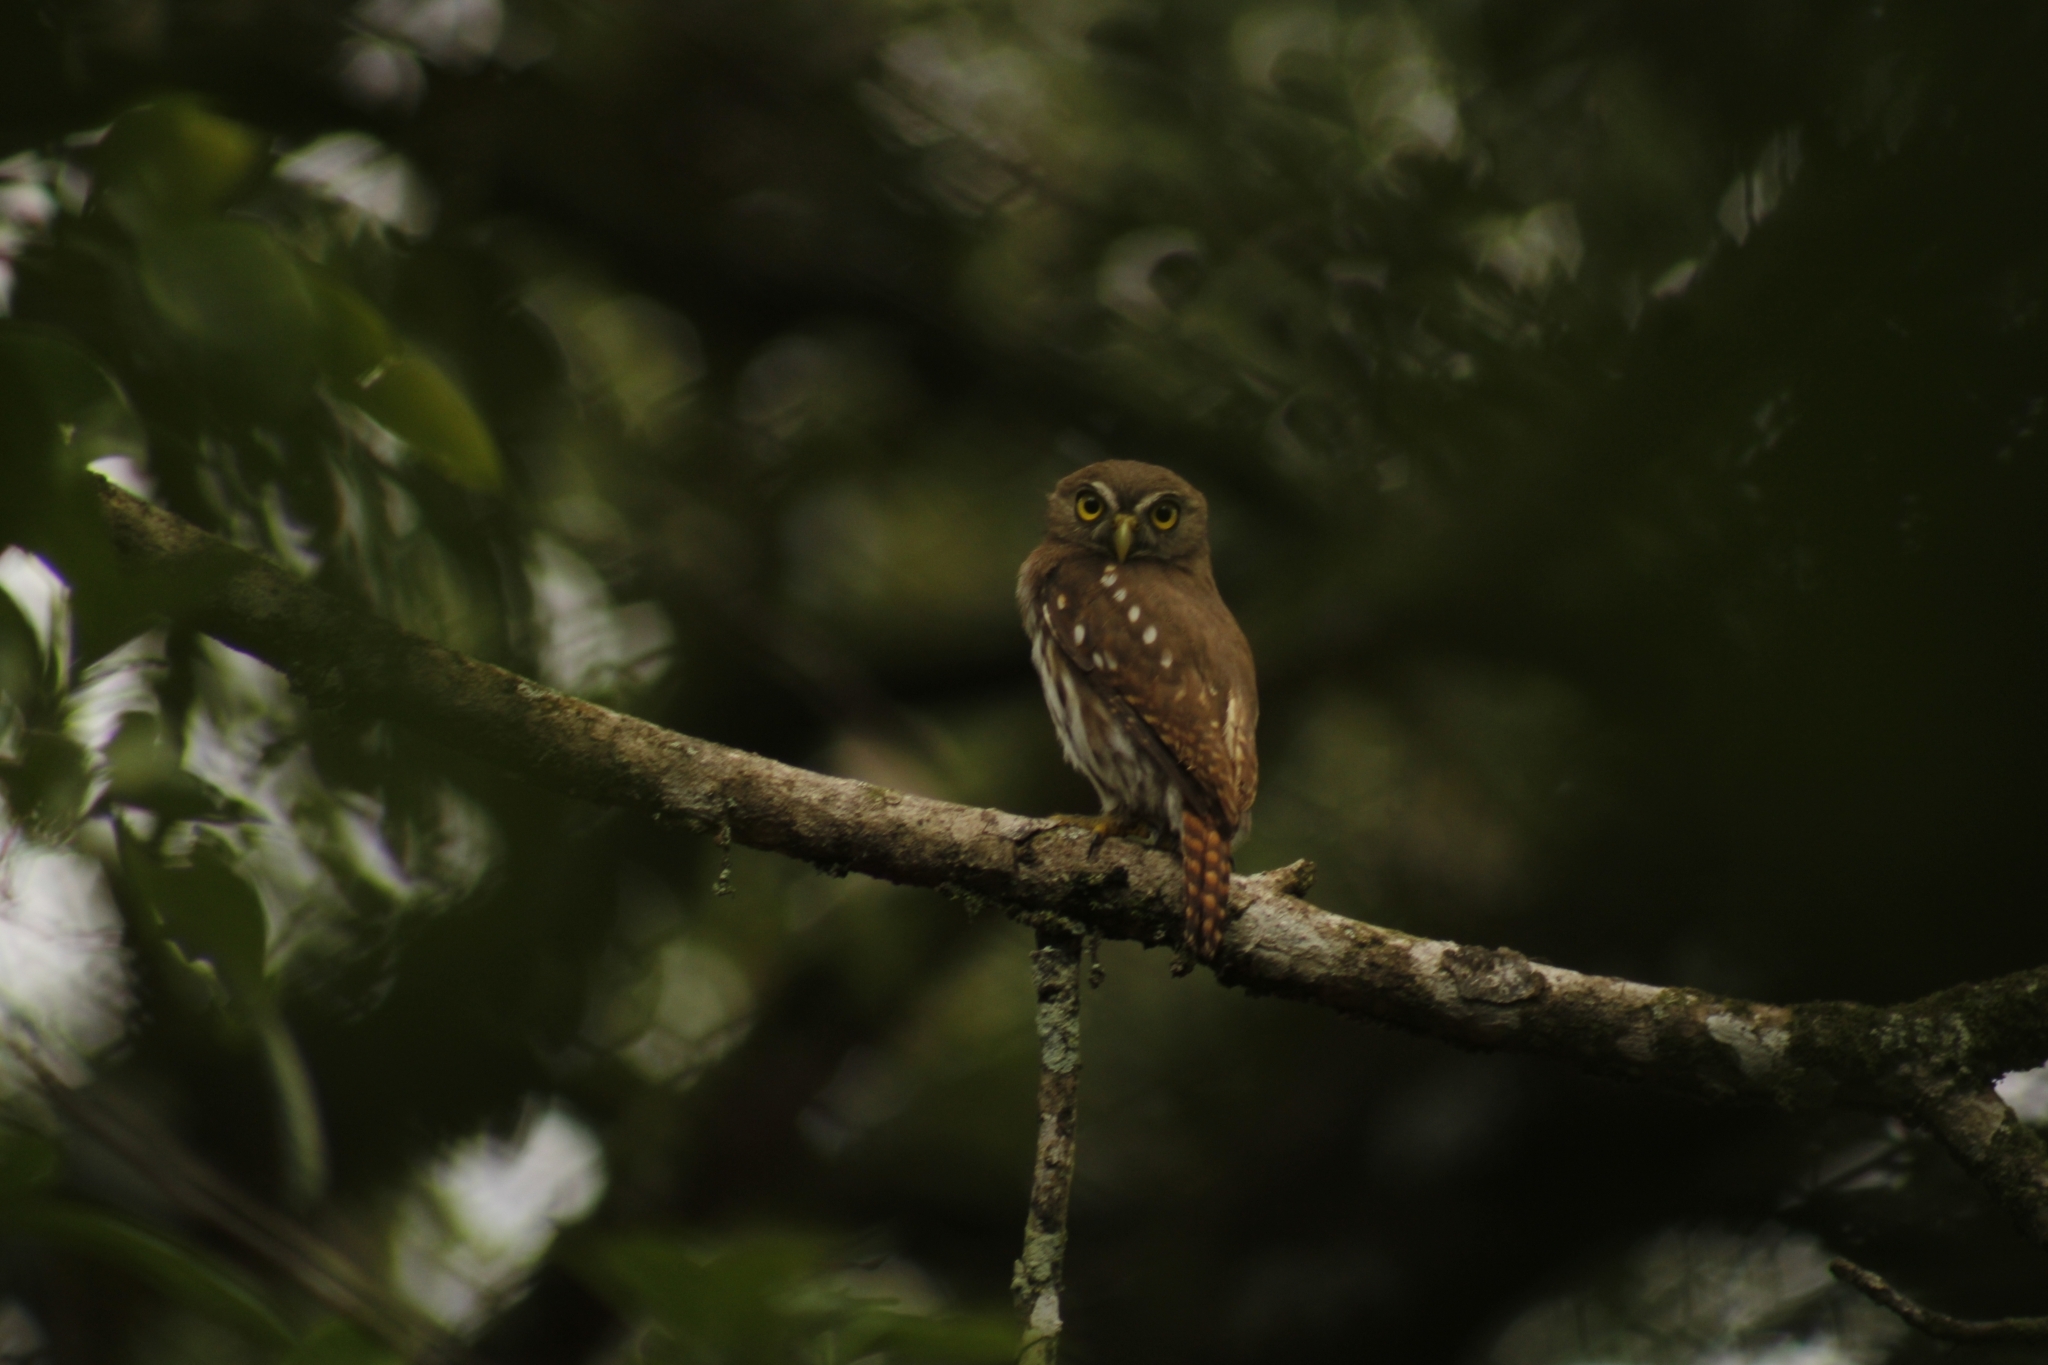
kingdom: Animalia
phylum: Chordata
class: Aves
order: Strigiformes
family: Strigidae
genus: Glaucidium
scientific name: Glaucidium brasilianum
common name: Ferruginous pygmy-owl
